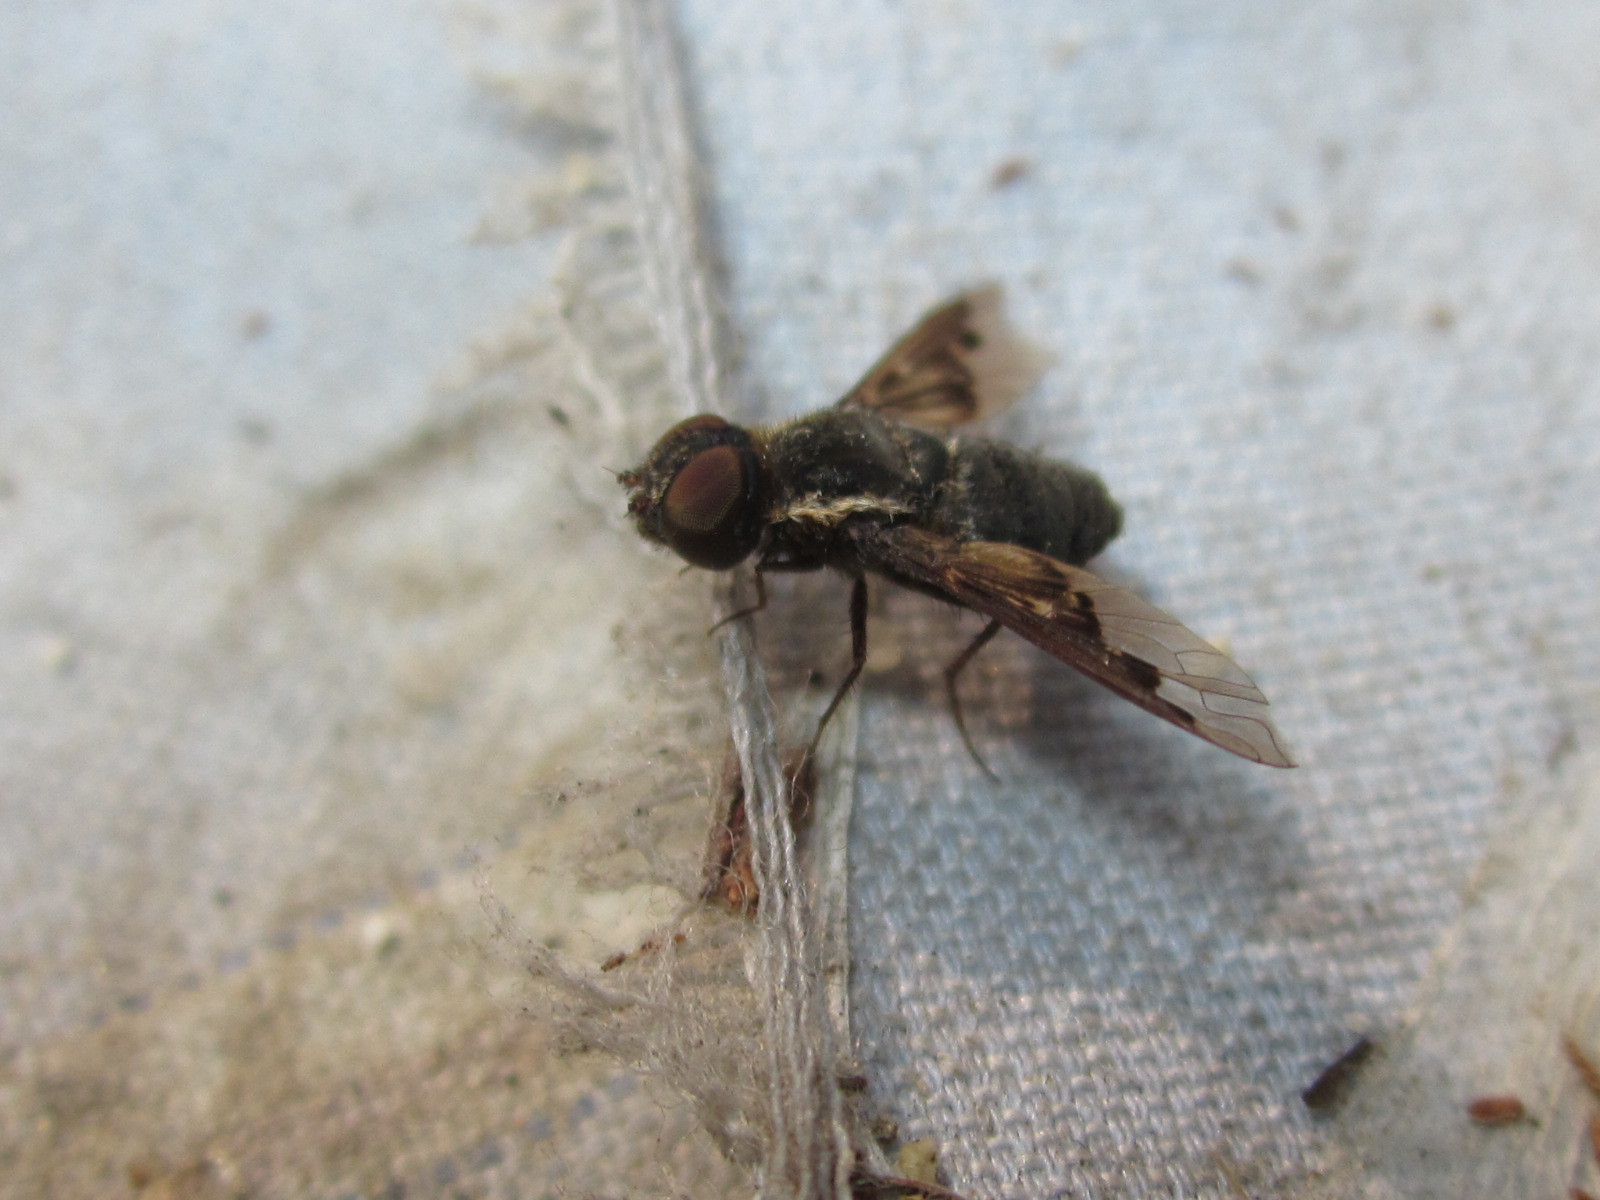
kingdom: Animalia
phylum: Arthropoda
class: Insecta
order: Diptera
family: Bombyliidae
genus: Hemipenthes
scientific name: Hemipenthes edwardsii
